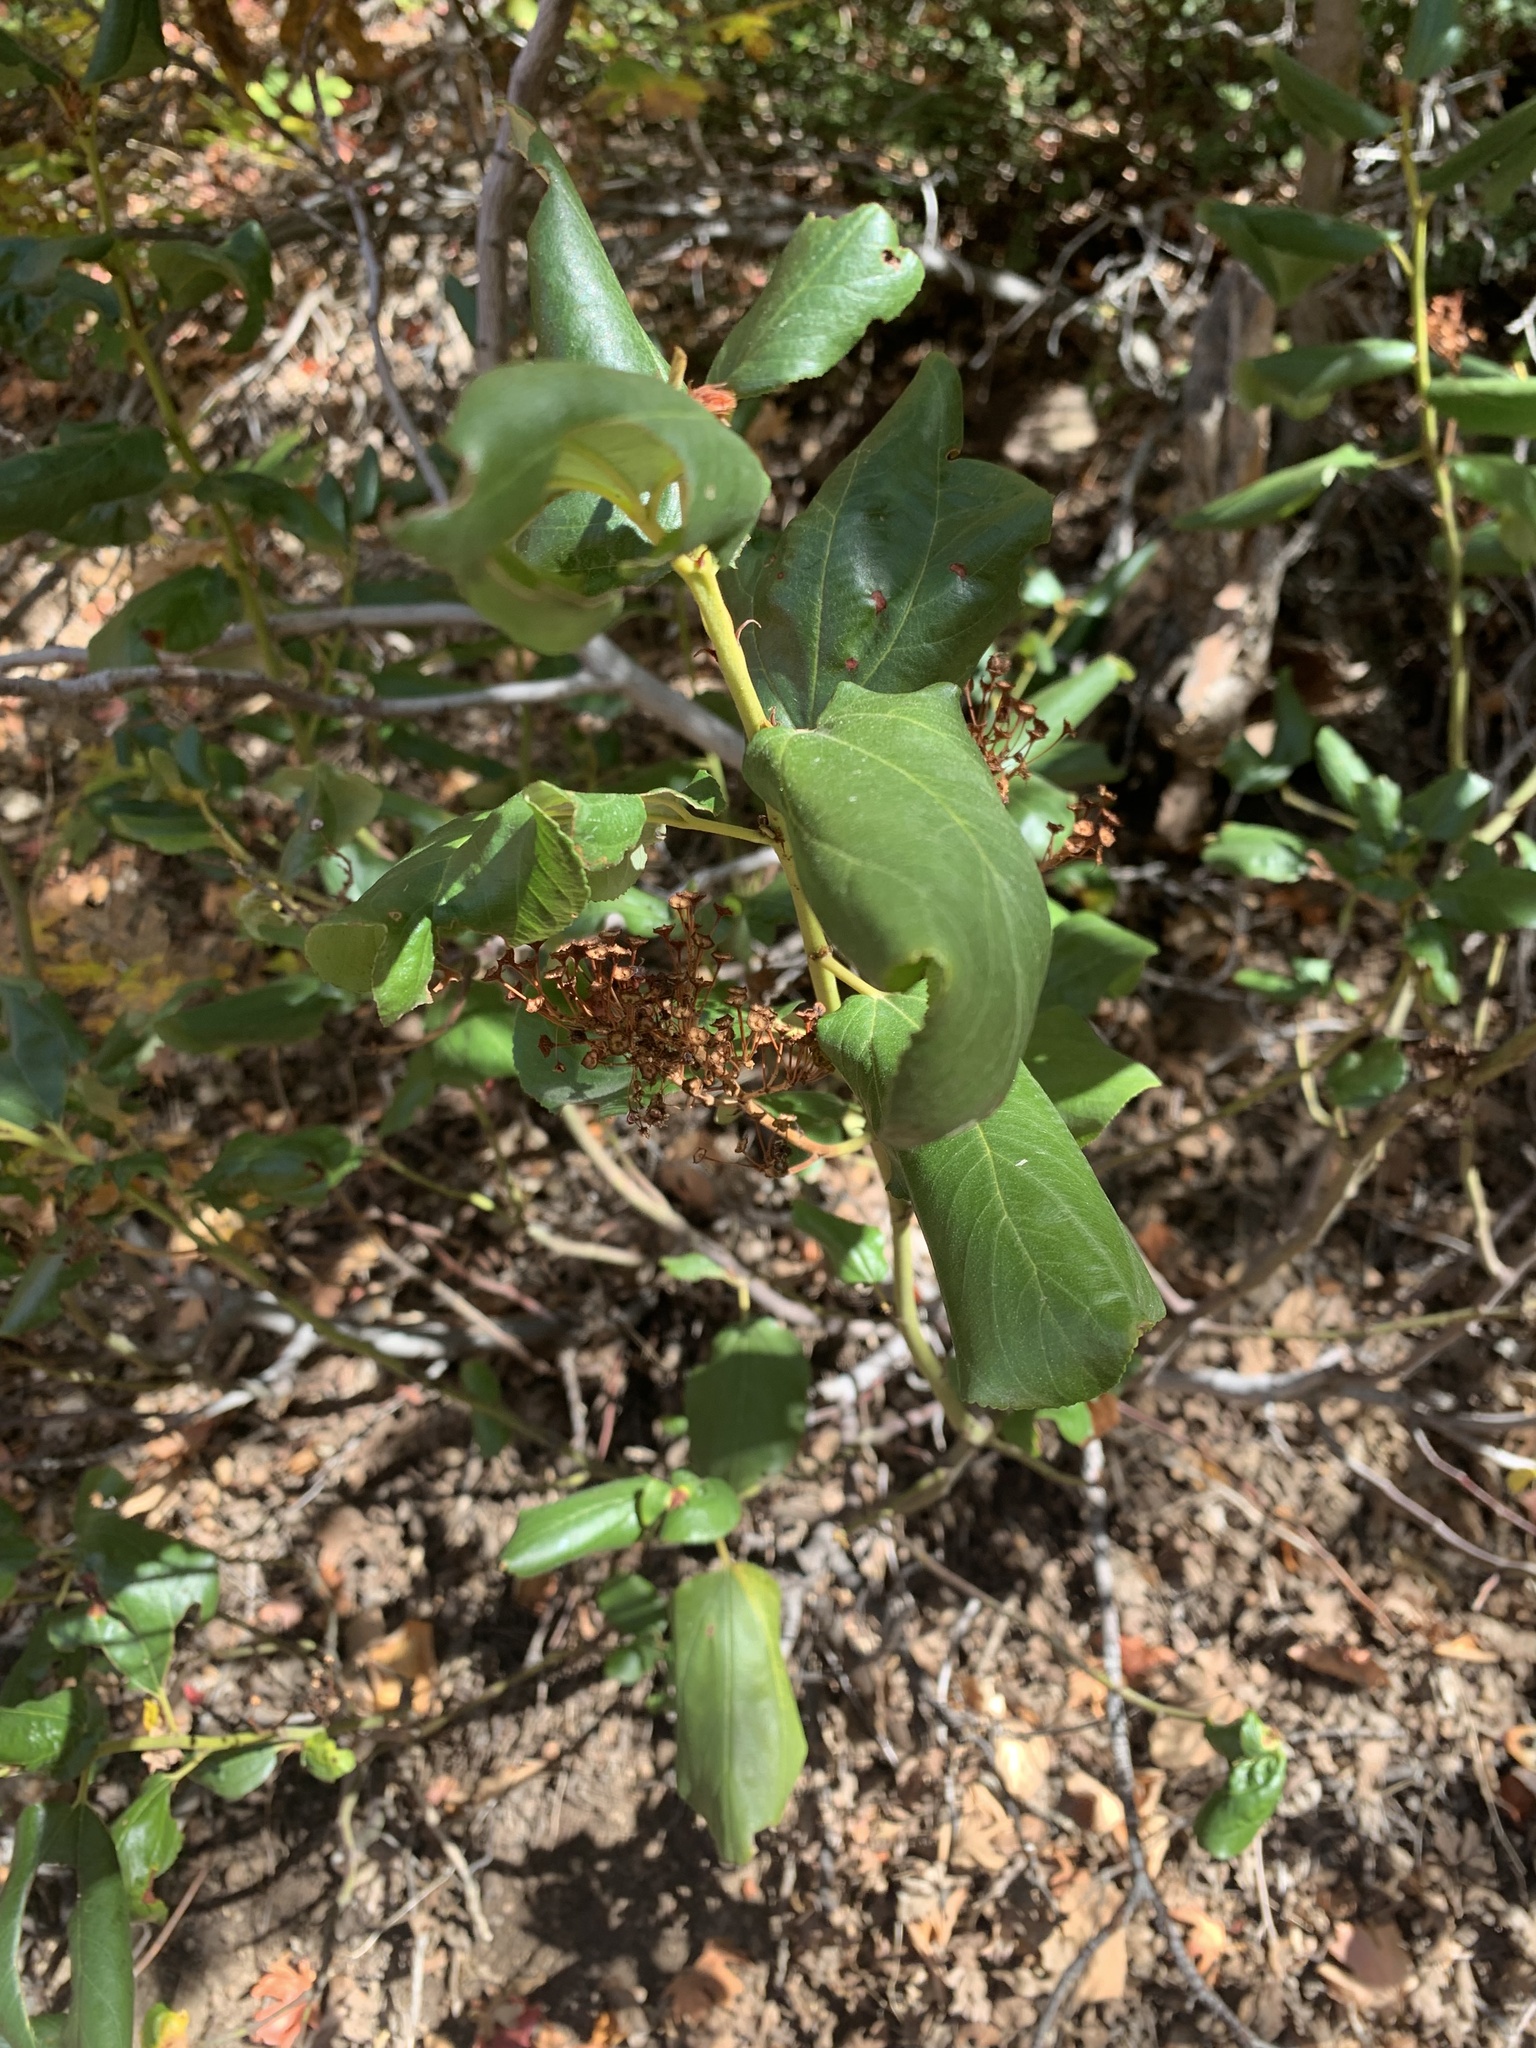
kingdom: Plantae
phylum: Tracheophyta
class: Magnoliopsida
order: Rosales
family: Rhamnaceae
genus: Ceanothus
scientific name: Ceanothus velutinus
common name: Snowbrush
